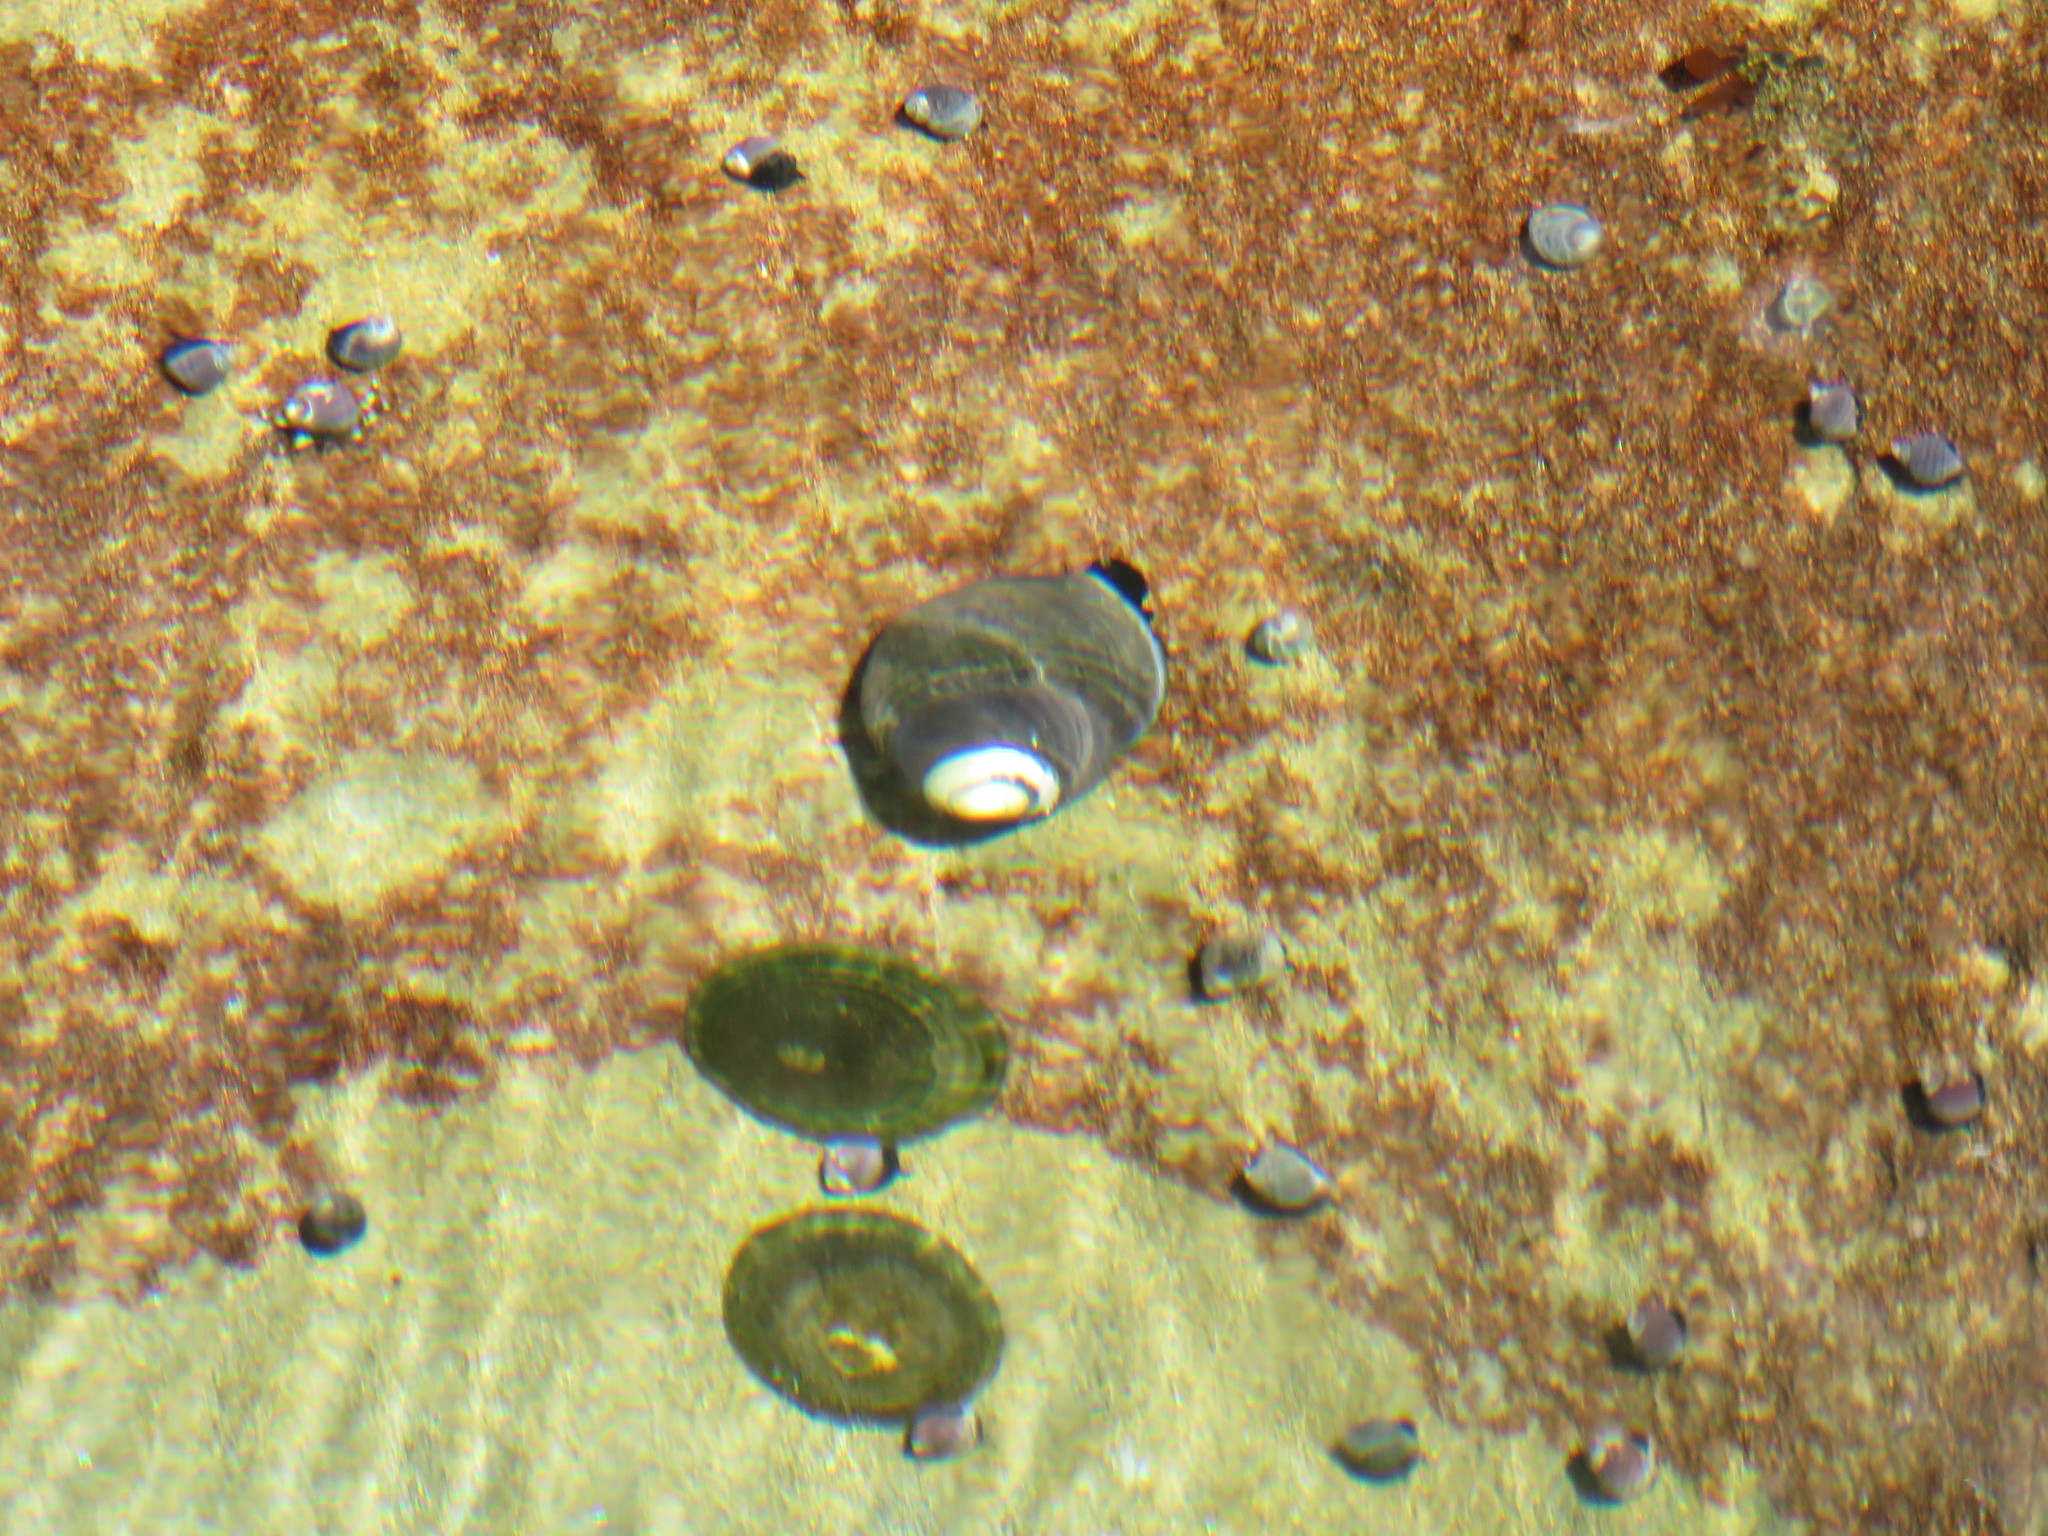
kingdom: Animalia
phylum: Mollusca
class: Gastropoda
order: Trochida
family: Tegulidae
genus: Tegula
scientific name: Tegula funebralis
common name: Black tegula
